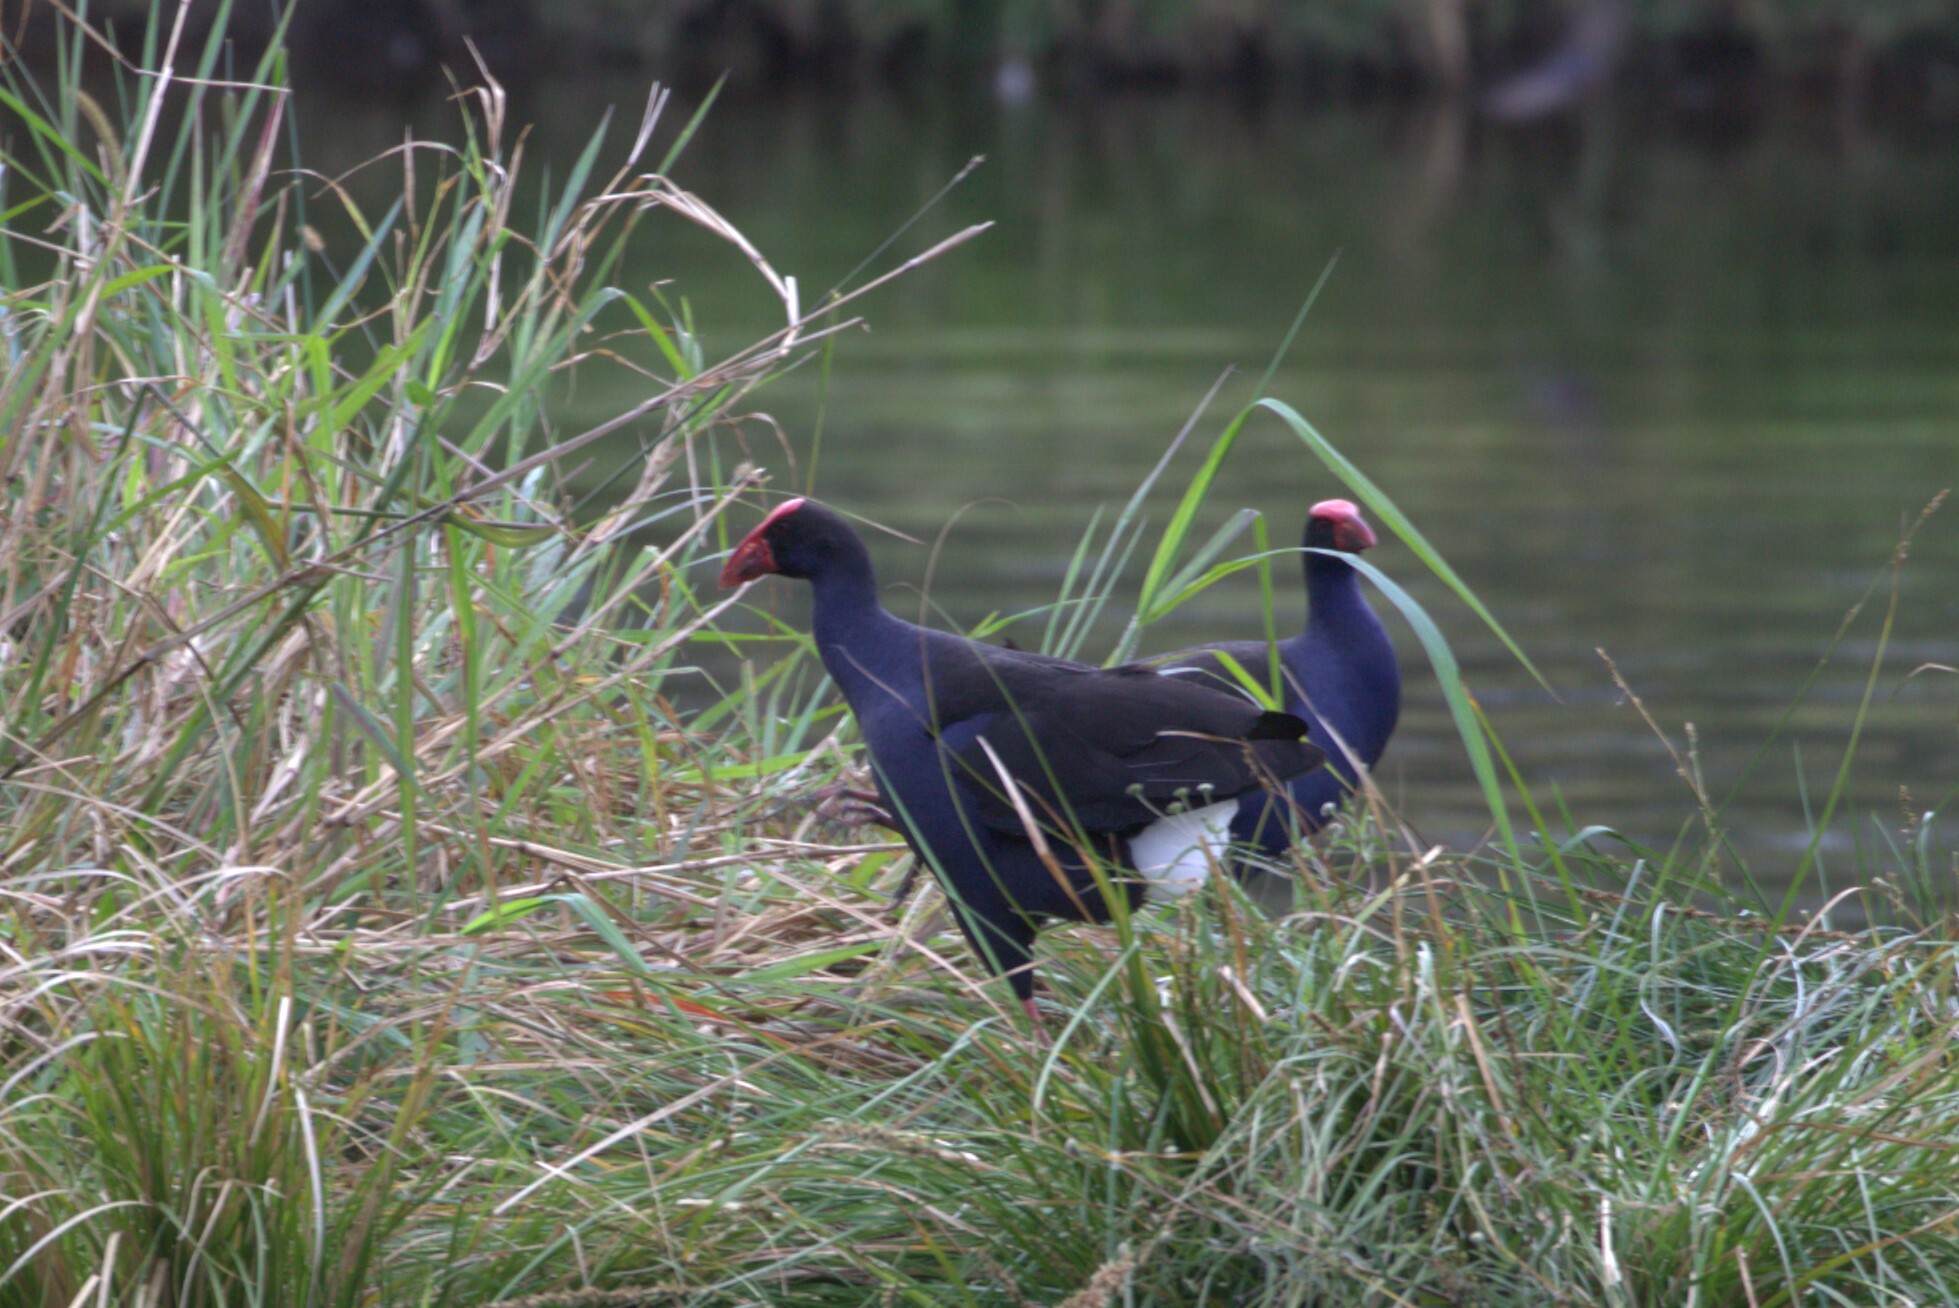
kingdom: Animalia
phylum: Chordata
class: Aves
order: Gruiformes
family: Rallidae
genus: Porphyrio
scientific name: Porphyrio melanotus
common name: Australasian swamphen
